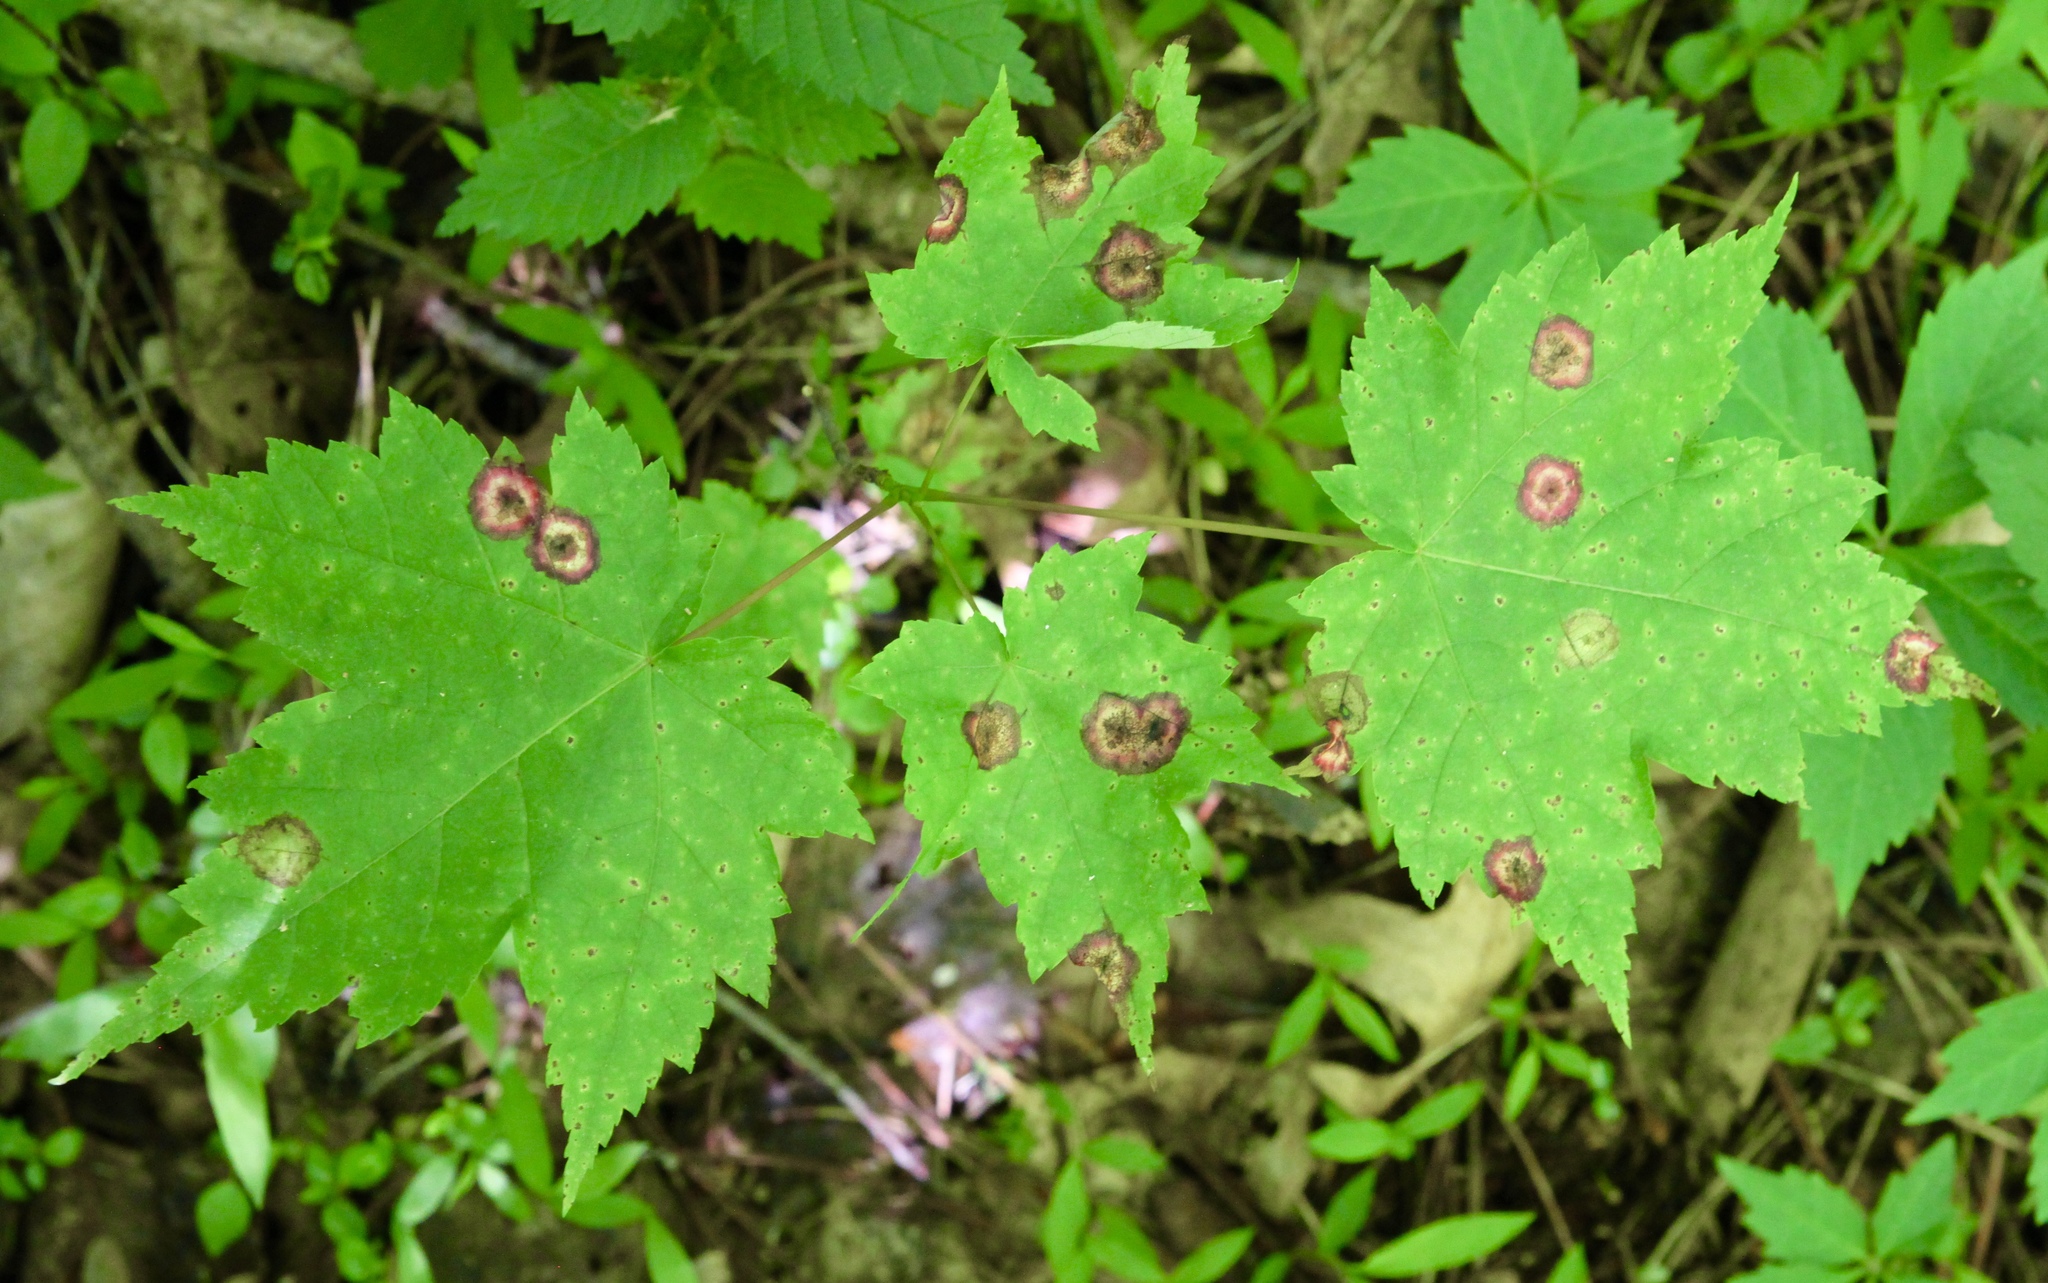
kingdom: Animalia
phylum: Arthropoda
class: Insecta
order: Diptera
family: Cecidomyiidae
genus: Acericecis
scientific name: Acericecis ocellaris
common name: Ocellate gall midge
